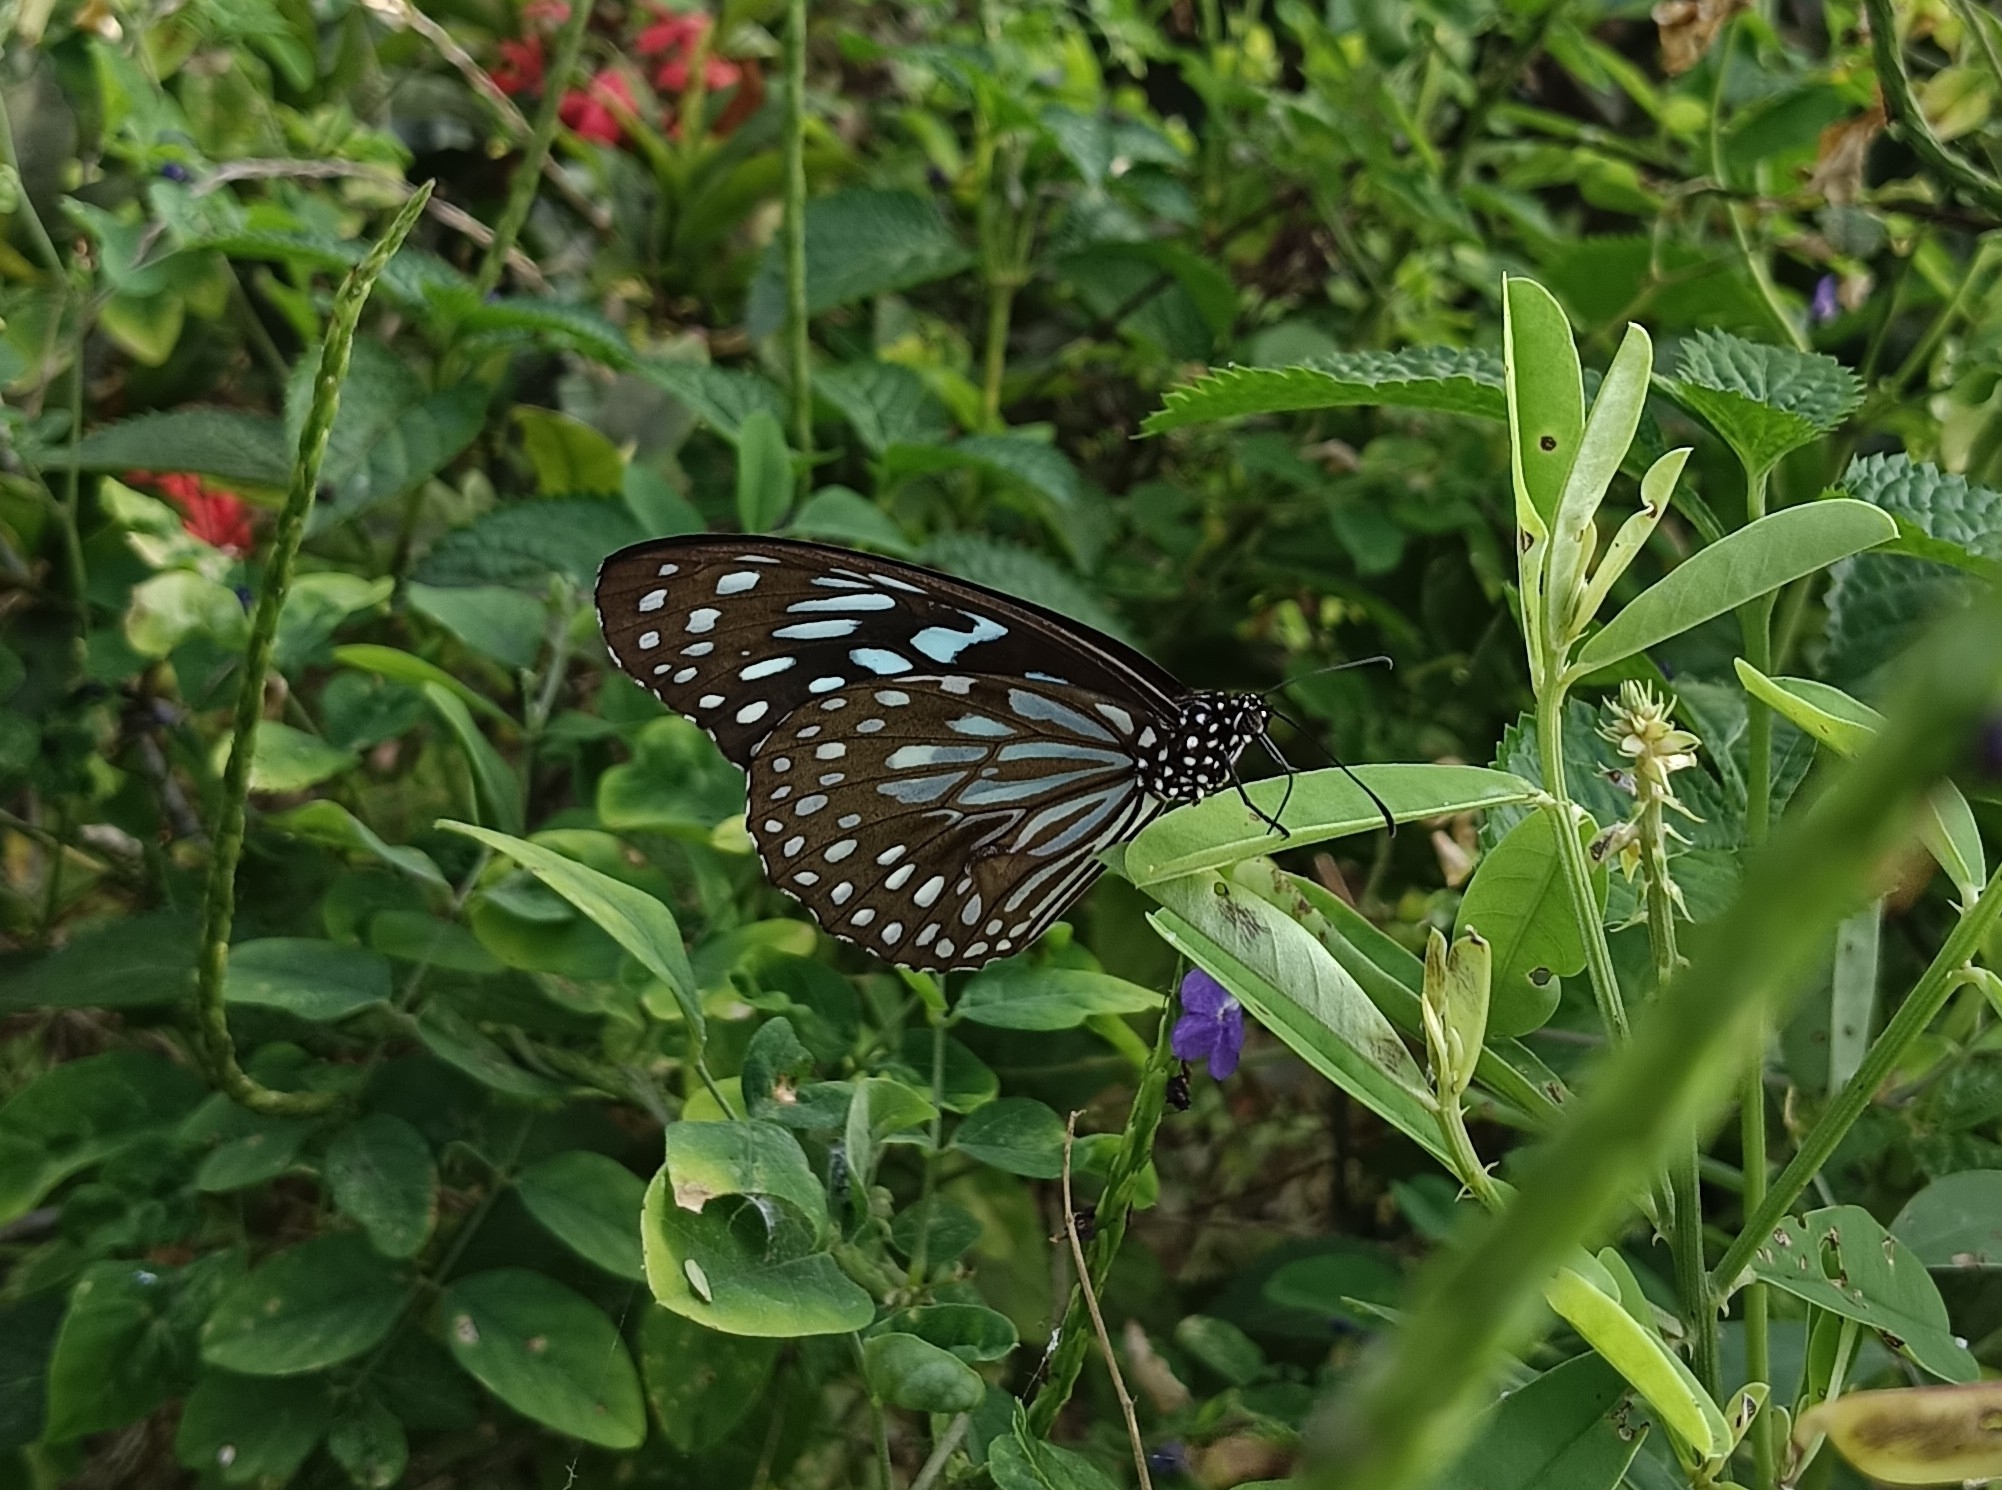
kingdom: Animalia
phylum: Arthropoda
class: Insecta
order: Lepidoptera
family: Nymphalidae
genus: Tirumala
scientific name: Tirumala septentrionis
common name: Dark blue tiger butterfly
